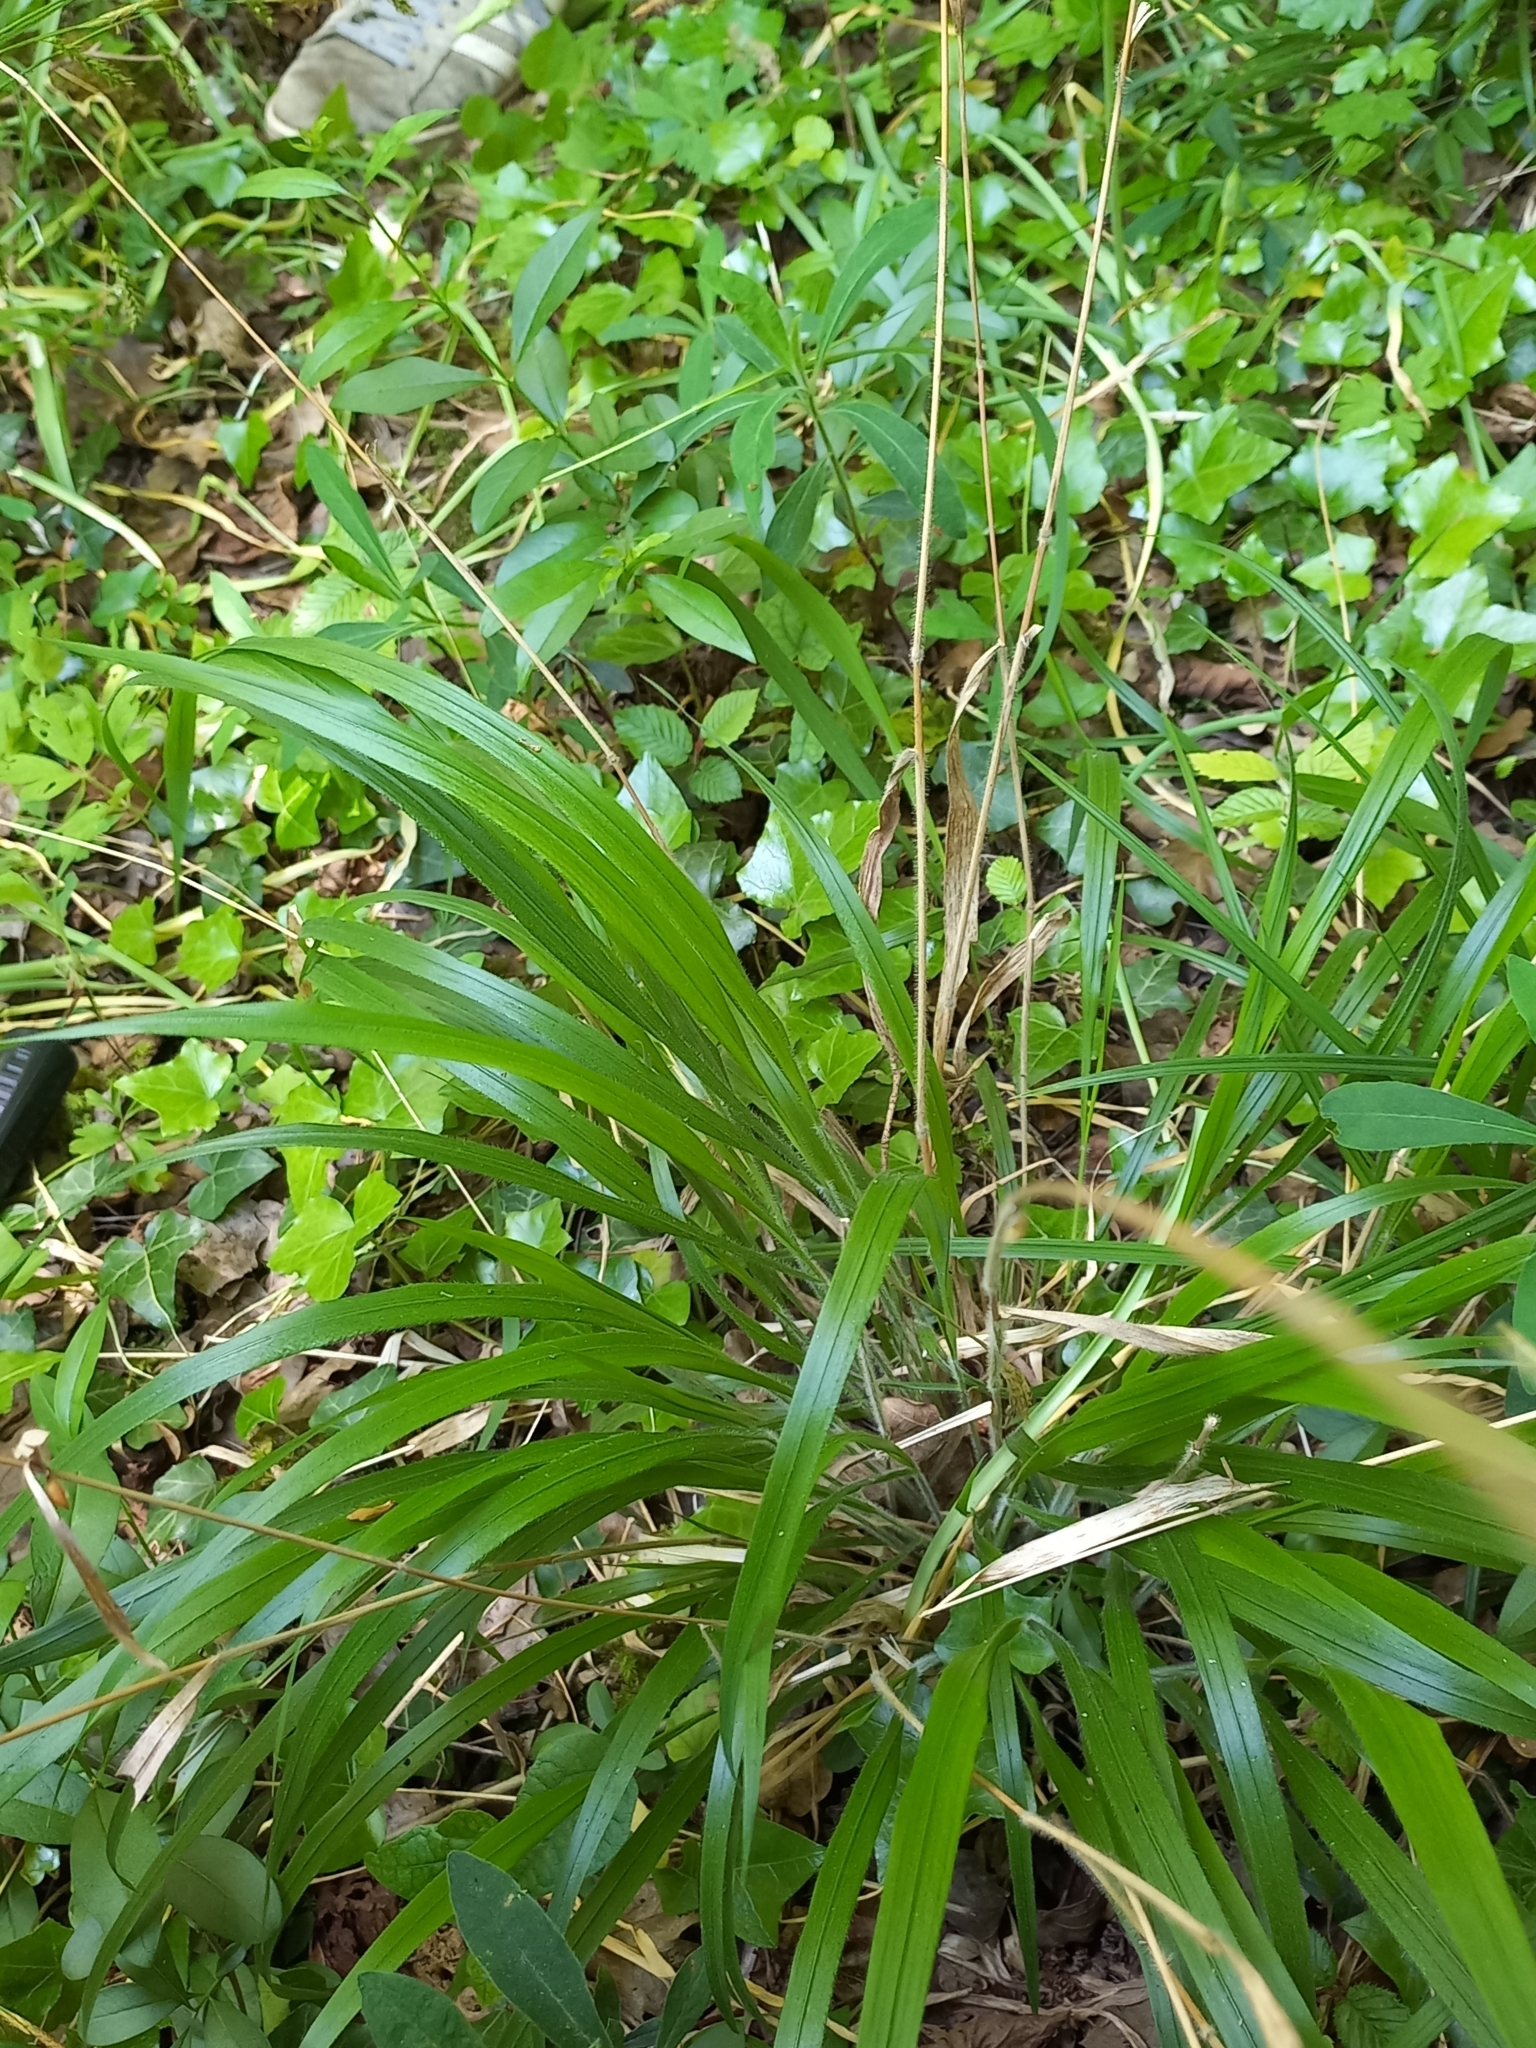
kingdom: Plantae
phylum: Tracheophyta
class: Liliopsida
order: Poales
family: Poaceae
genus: Brachypodium
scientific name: Brachypodium sylvaticum
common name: False-brome
